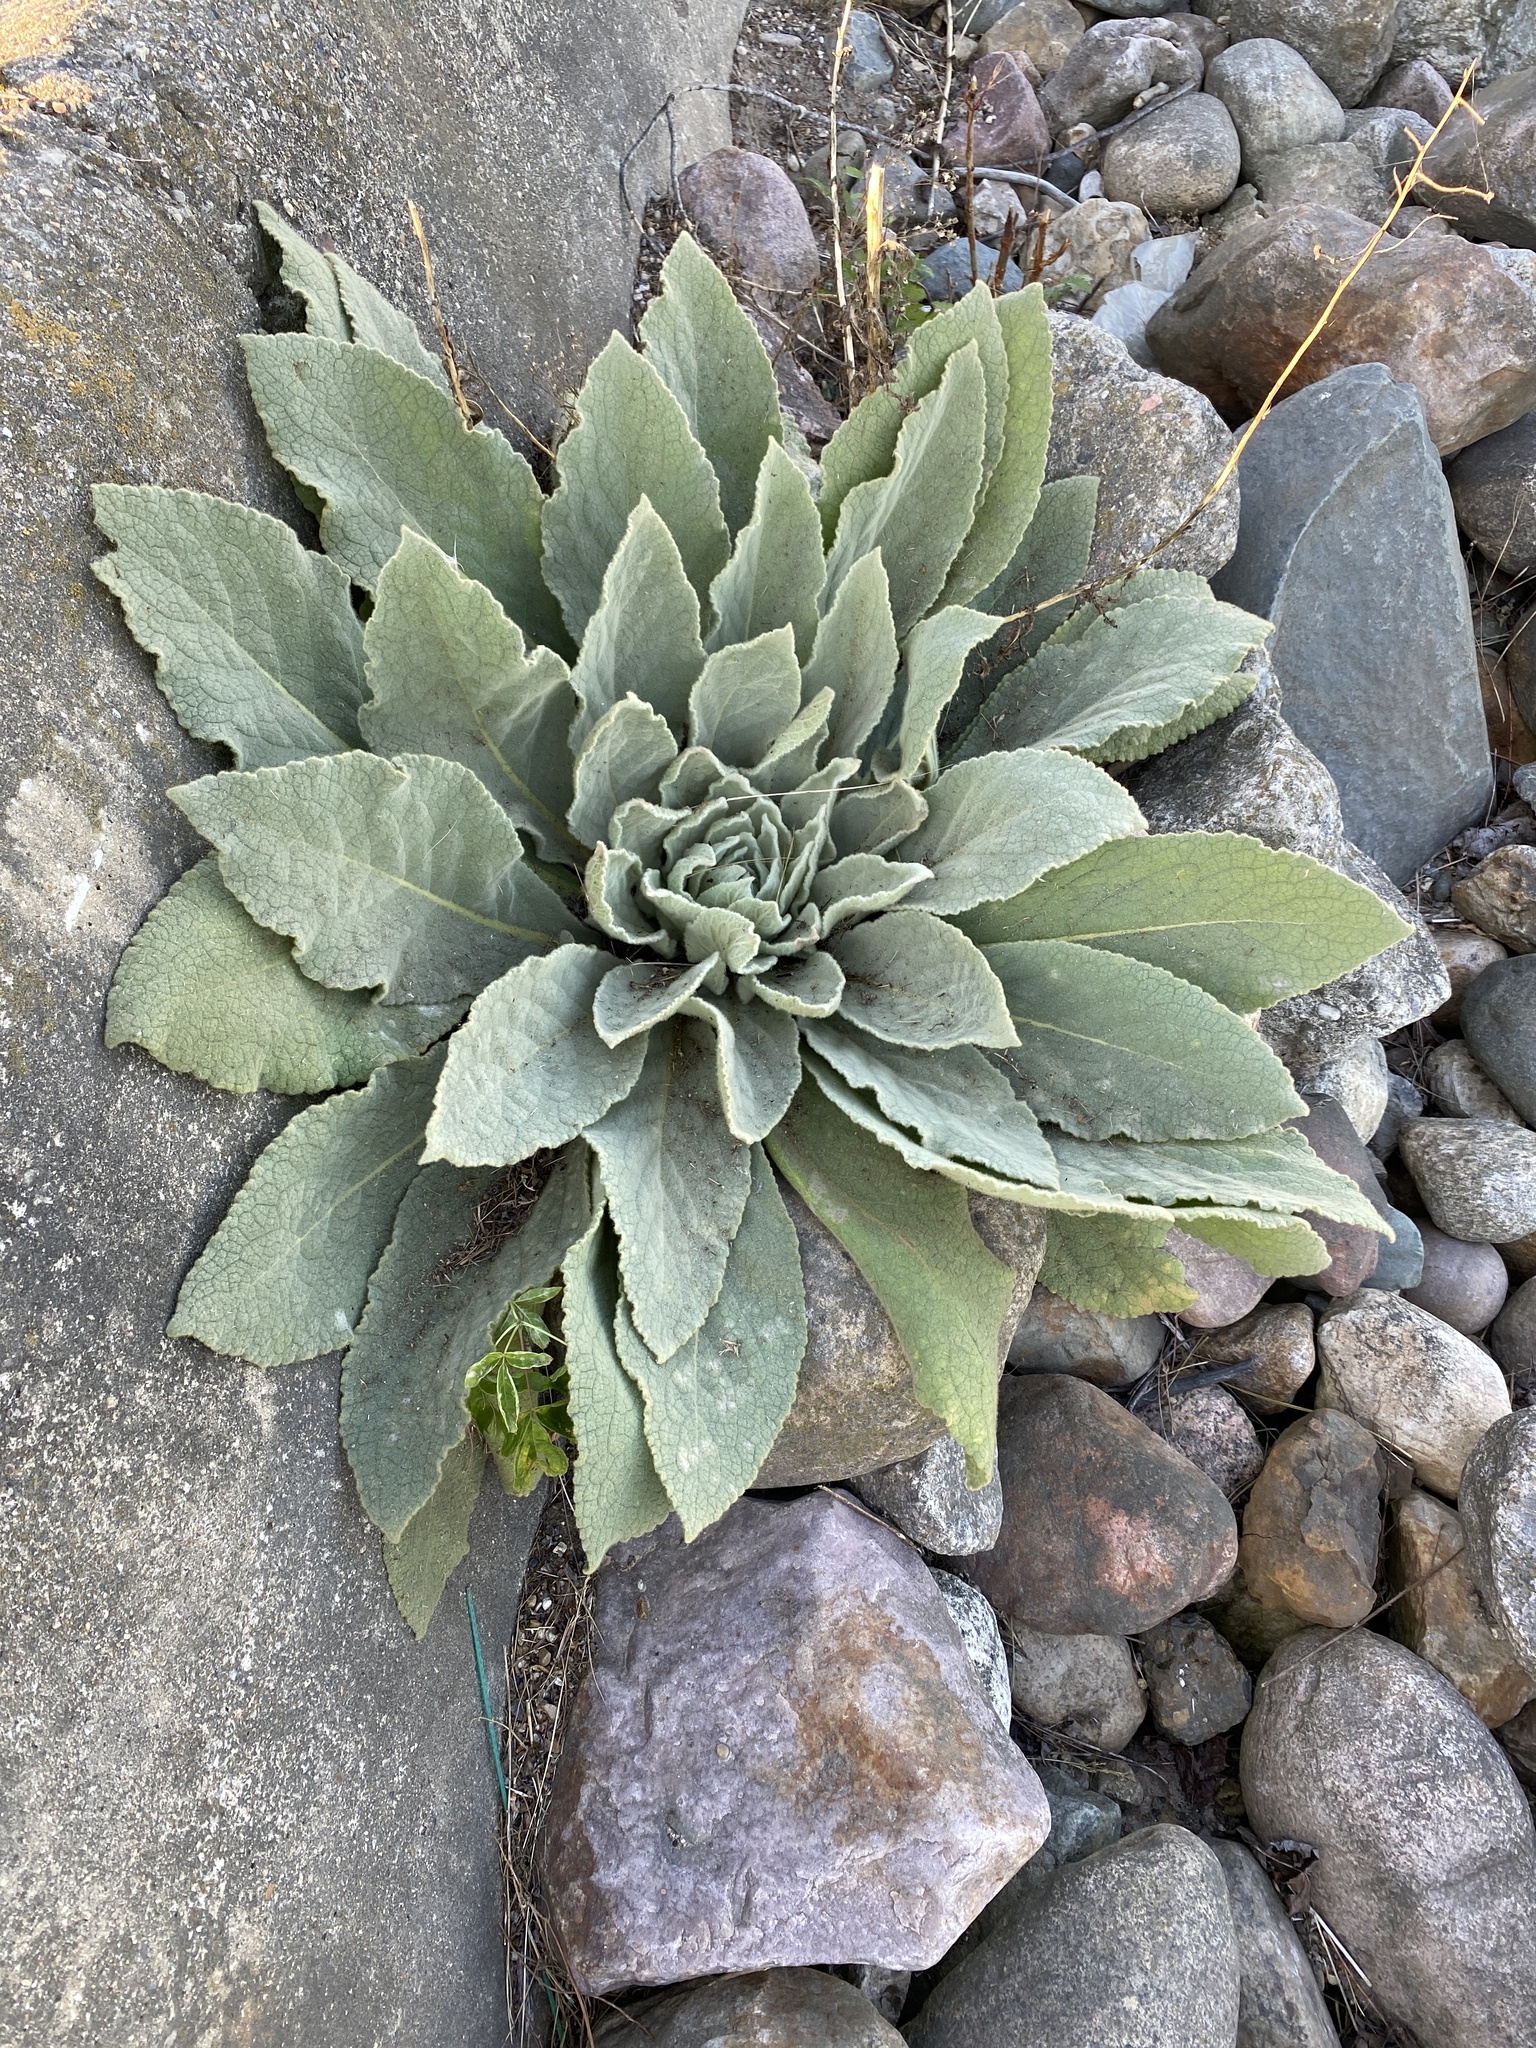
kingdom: Plantae
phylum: Tracheophyta
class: Magnoliopsida
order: Lamiales
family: Scrophulariaceae
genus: Verbascum
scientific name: Verbascum thapsus
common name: Common mullein
